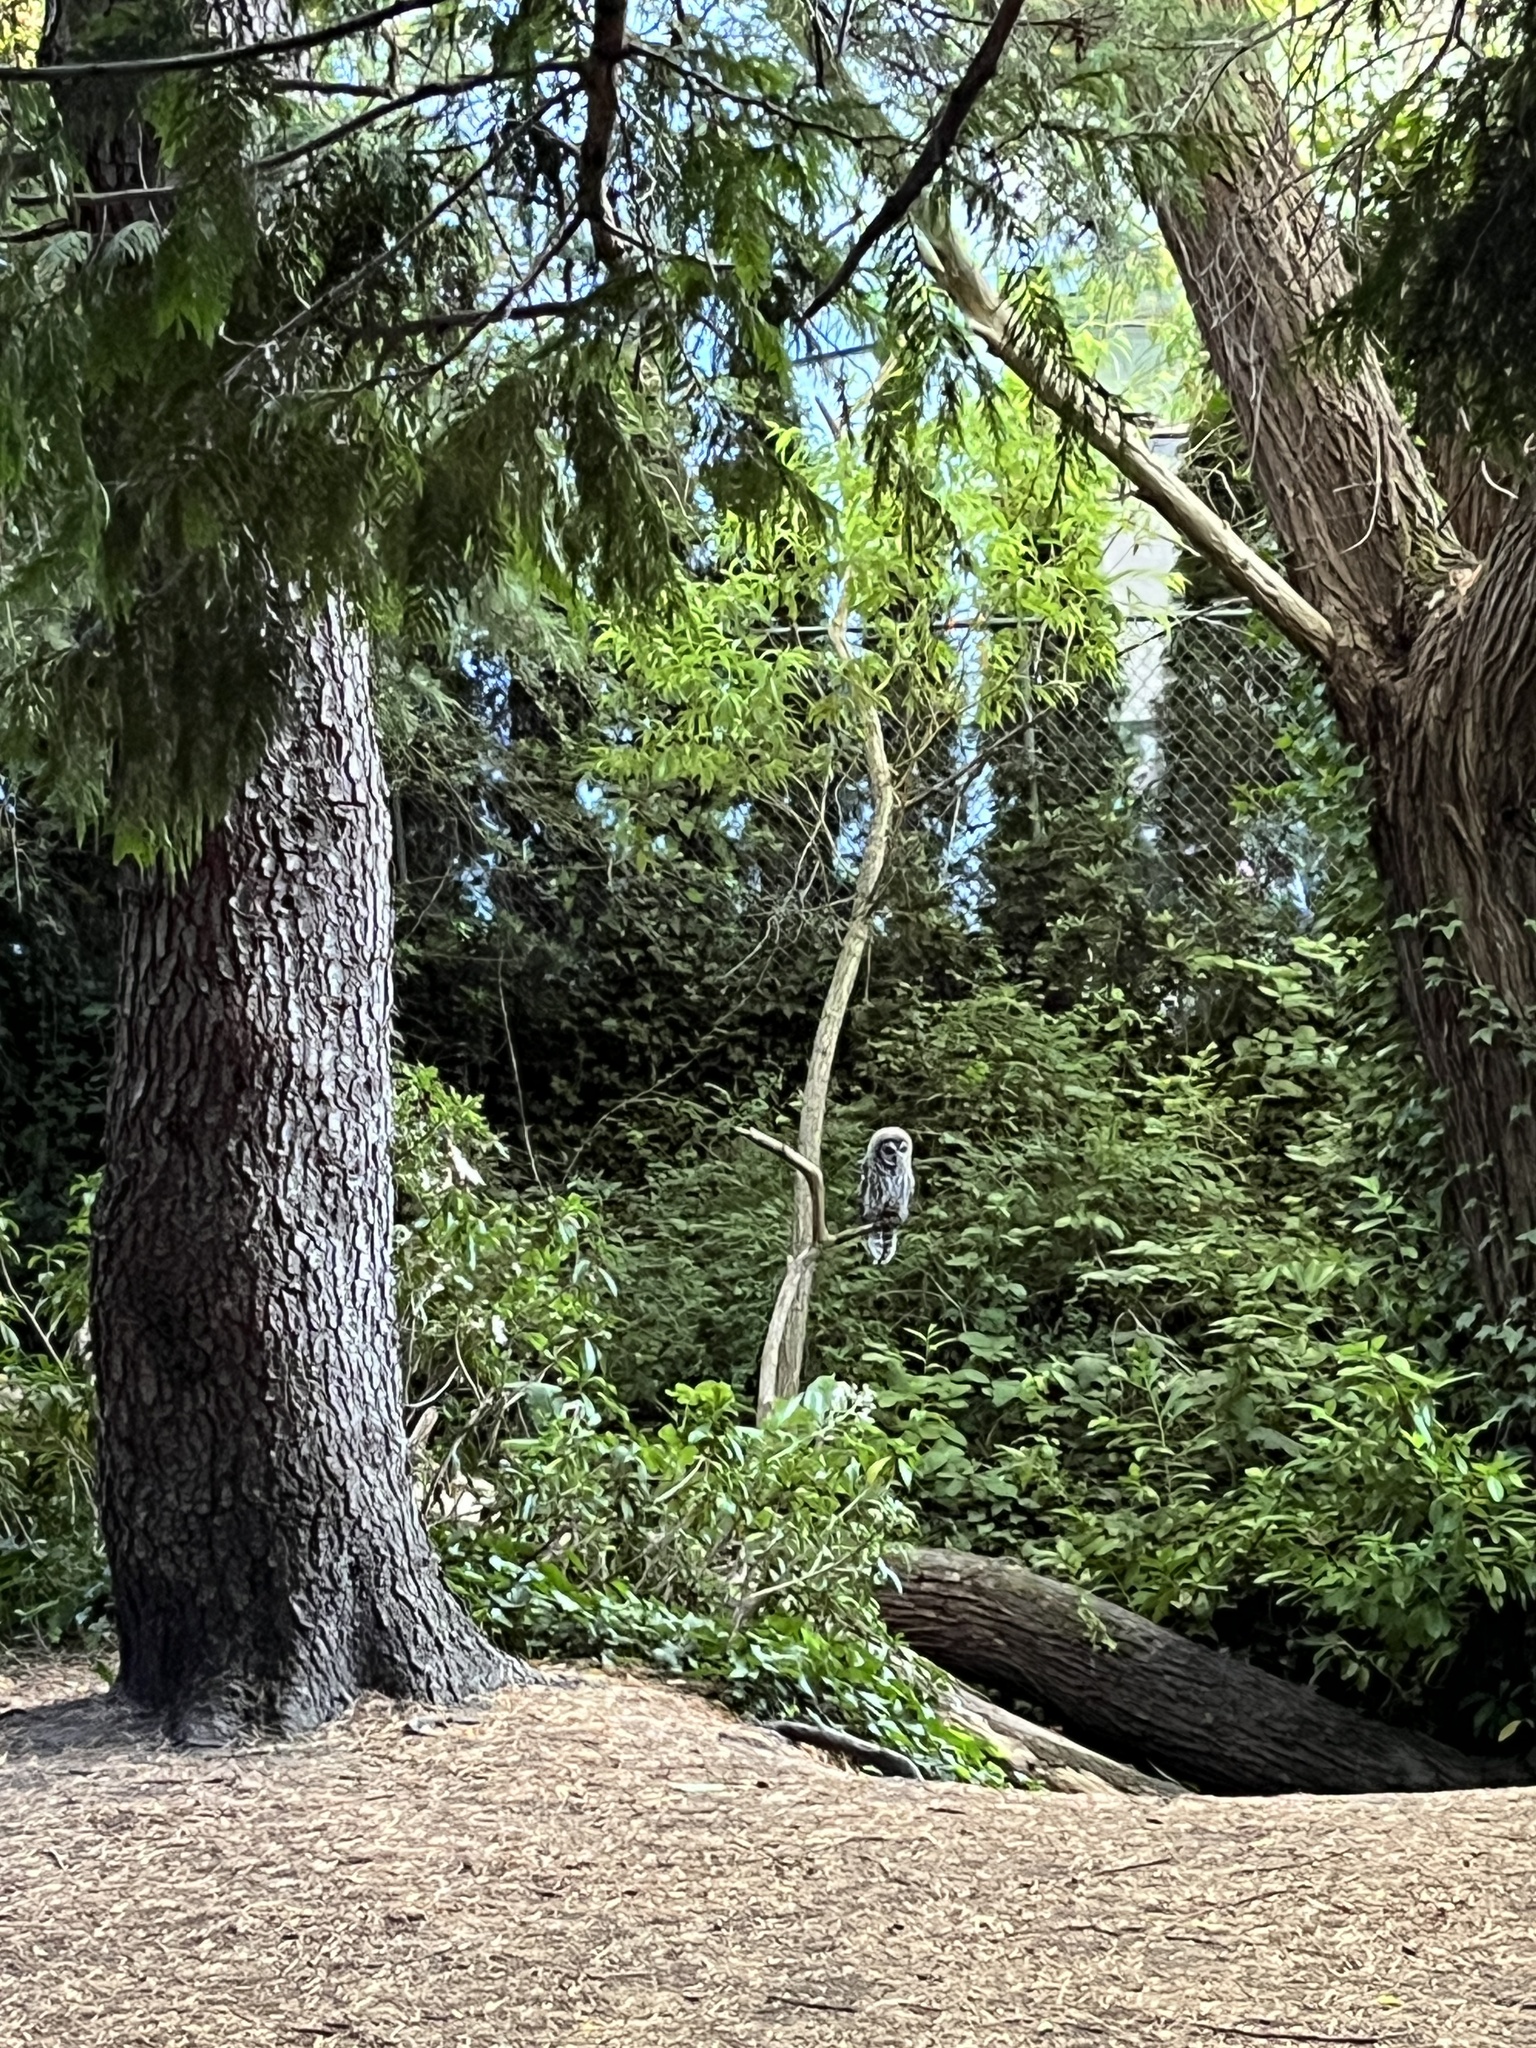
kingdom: Animalia
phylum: Chordata
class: Aves
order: Strigiformes
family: Strigidae
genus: Strix
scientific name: Strix varia
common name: Barred owl
